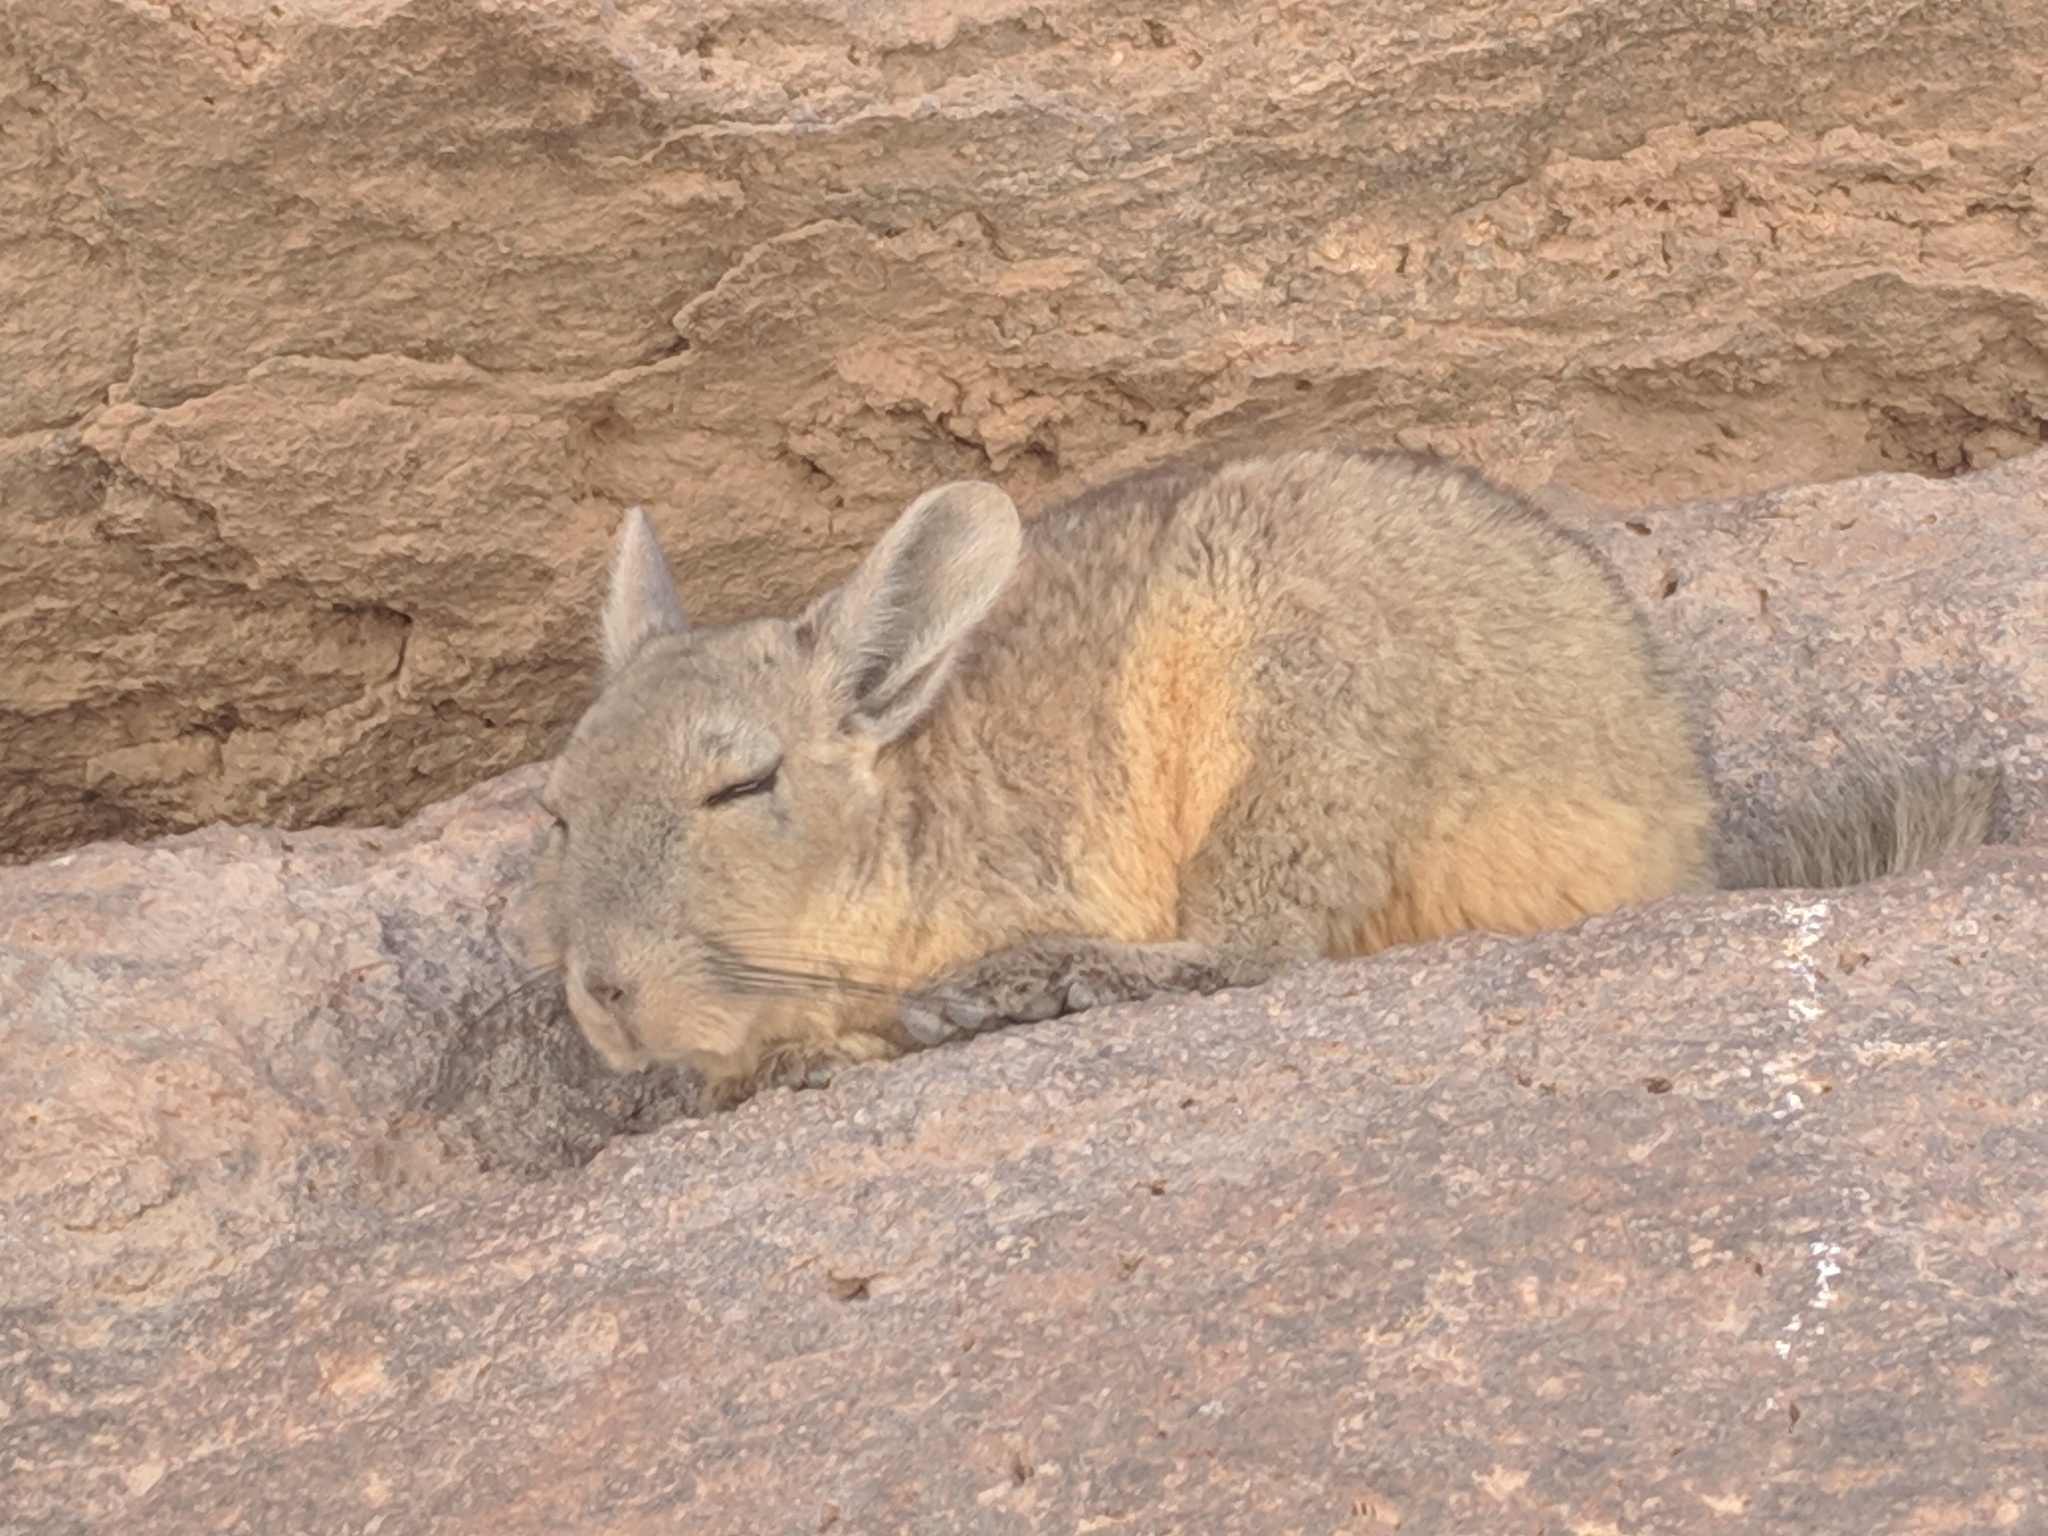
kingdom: Animalia
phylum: Chordata
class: Mammalia
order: Rodentia
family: Chinchillidae
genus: Lagidium
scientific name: Lagidium viscacia
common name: Southern viscacha
